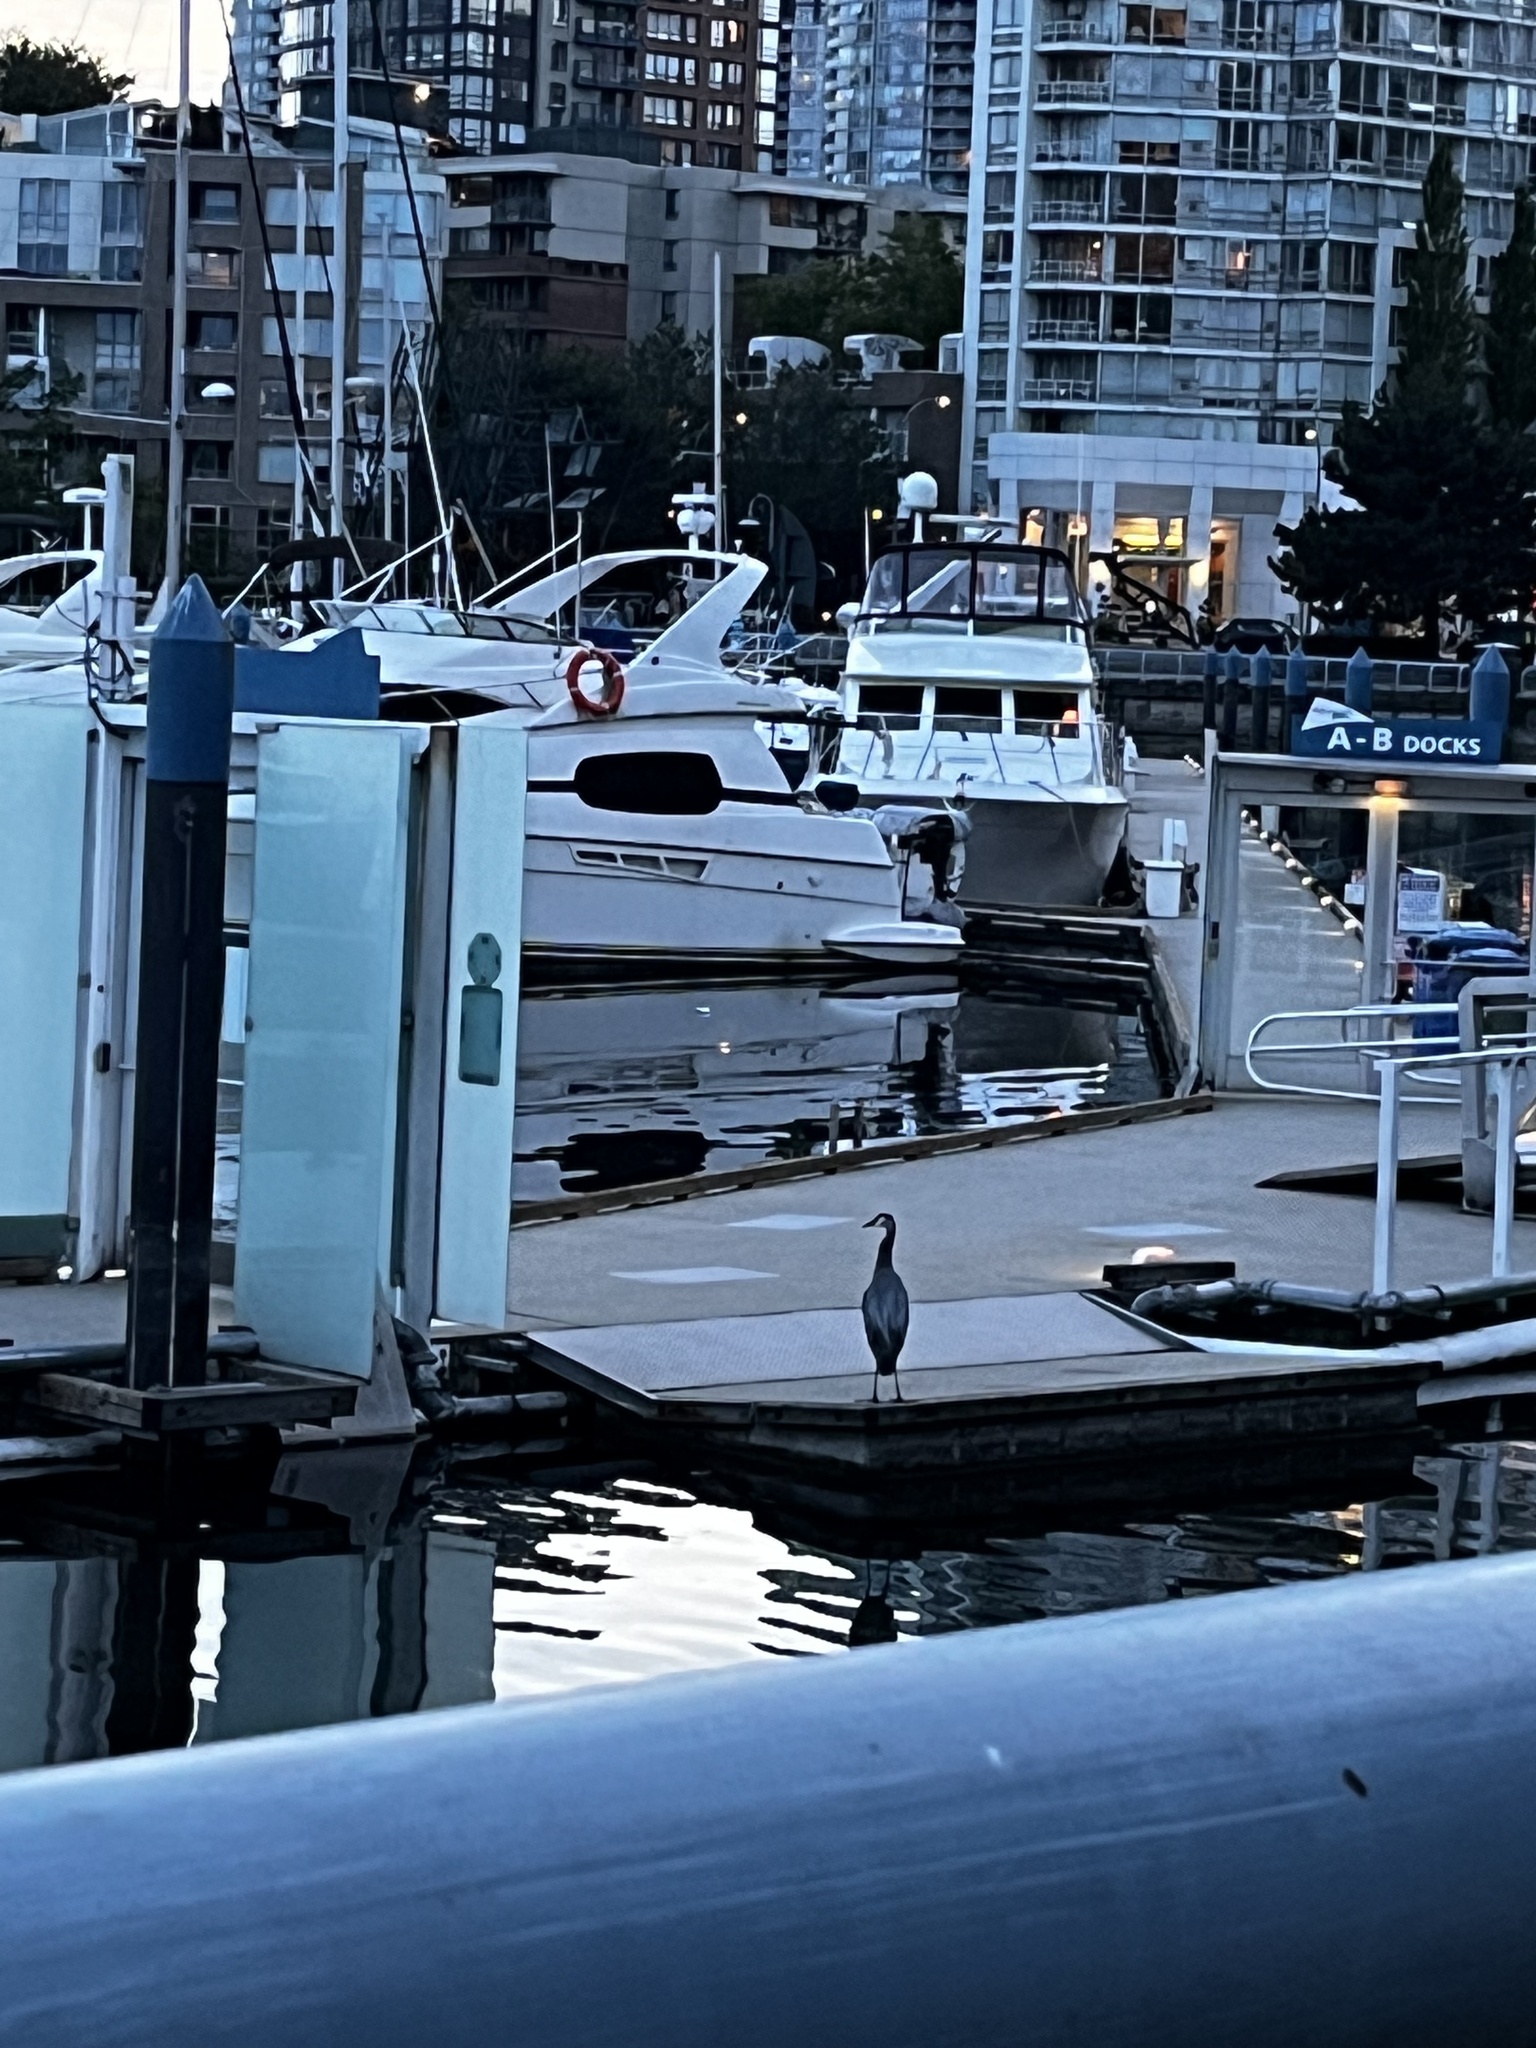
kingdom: Animalia
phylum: Chordata
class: Aves
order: Pelecaniformes
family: Ardeidae
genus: Ardea
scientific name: Ardea herodias
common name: Great blue heron
